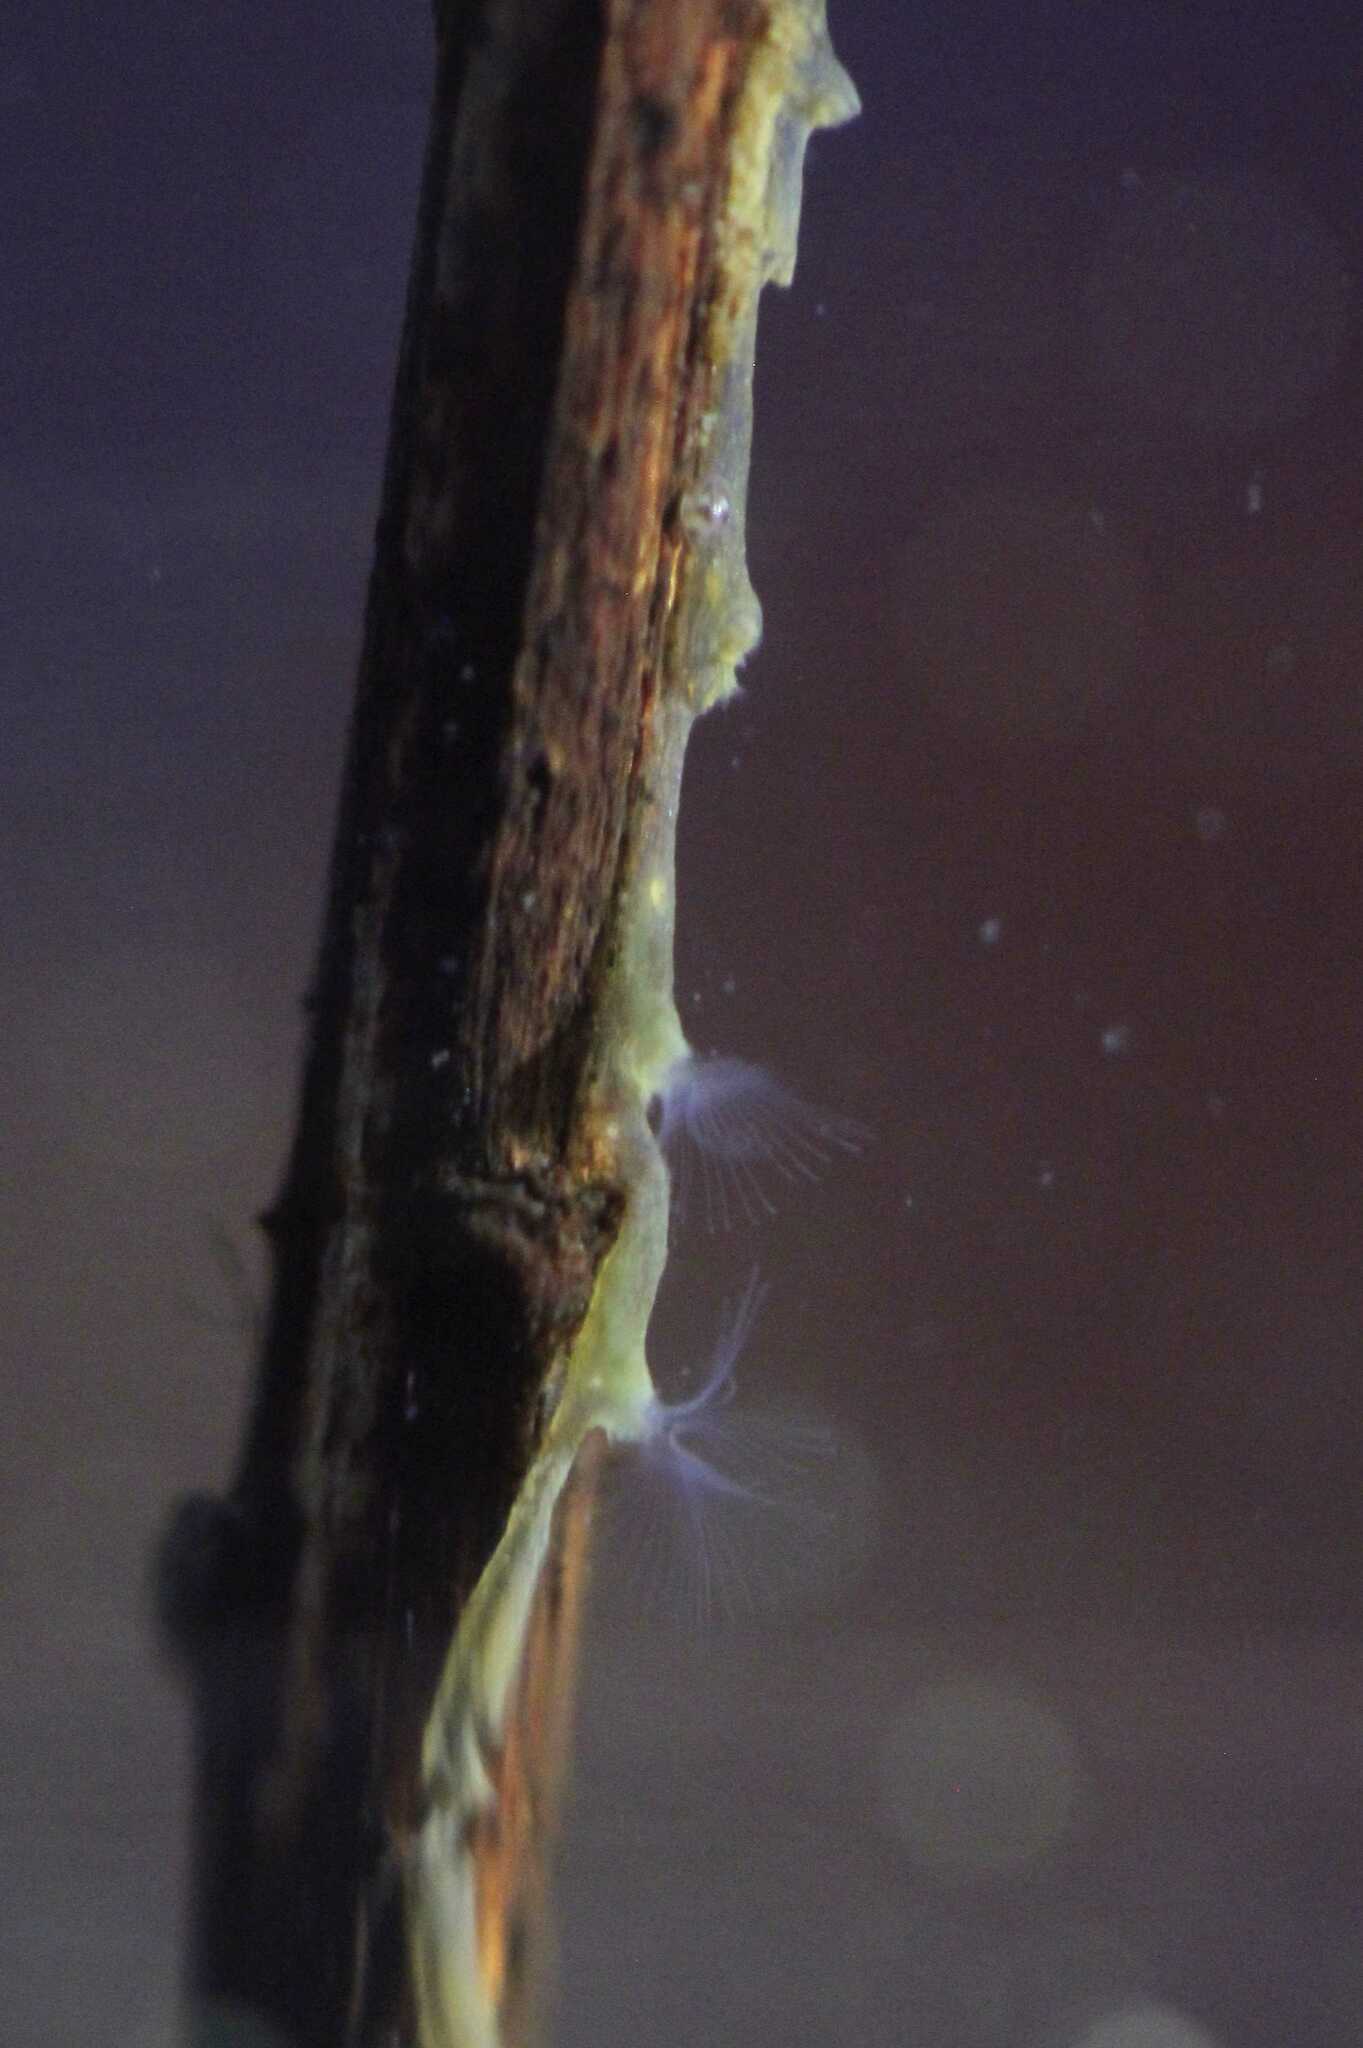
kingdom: Animalia
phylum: Bryozoa
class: Phylactolaemata
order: Plumatellida
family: Plumatellidae
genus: Plumatella
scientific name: Plumatella repens
